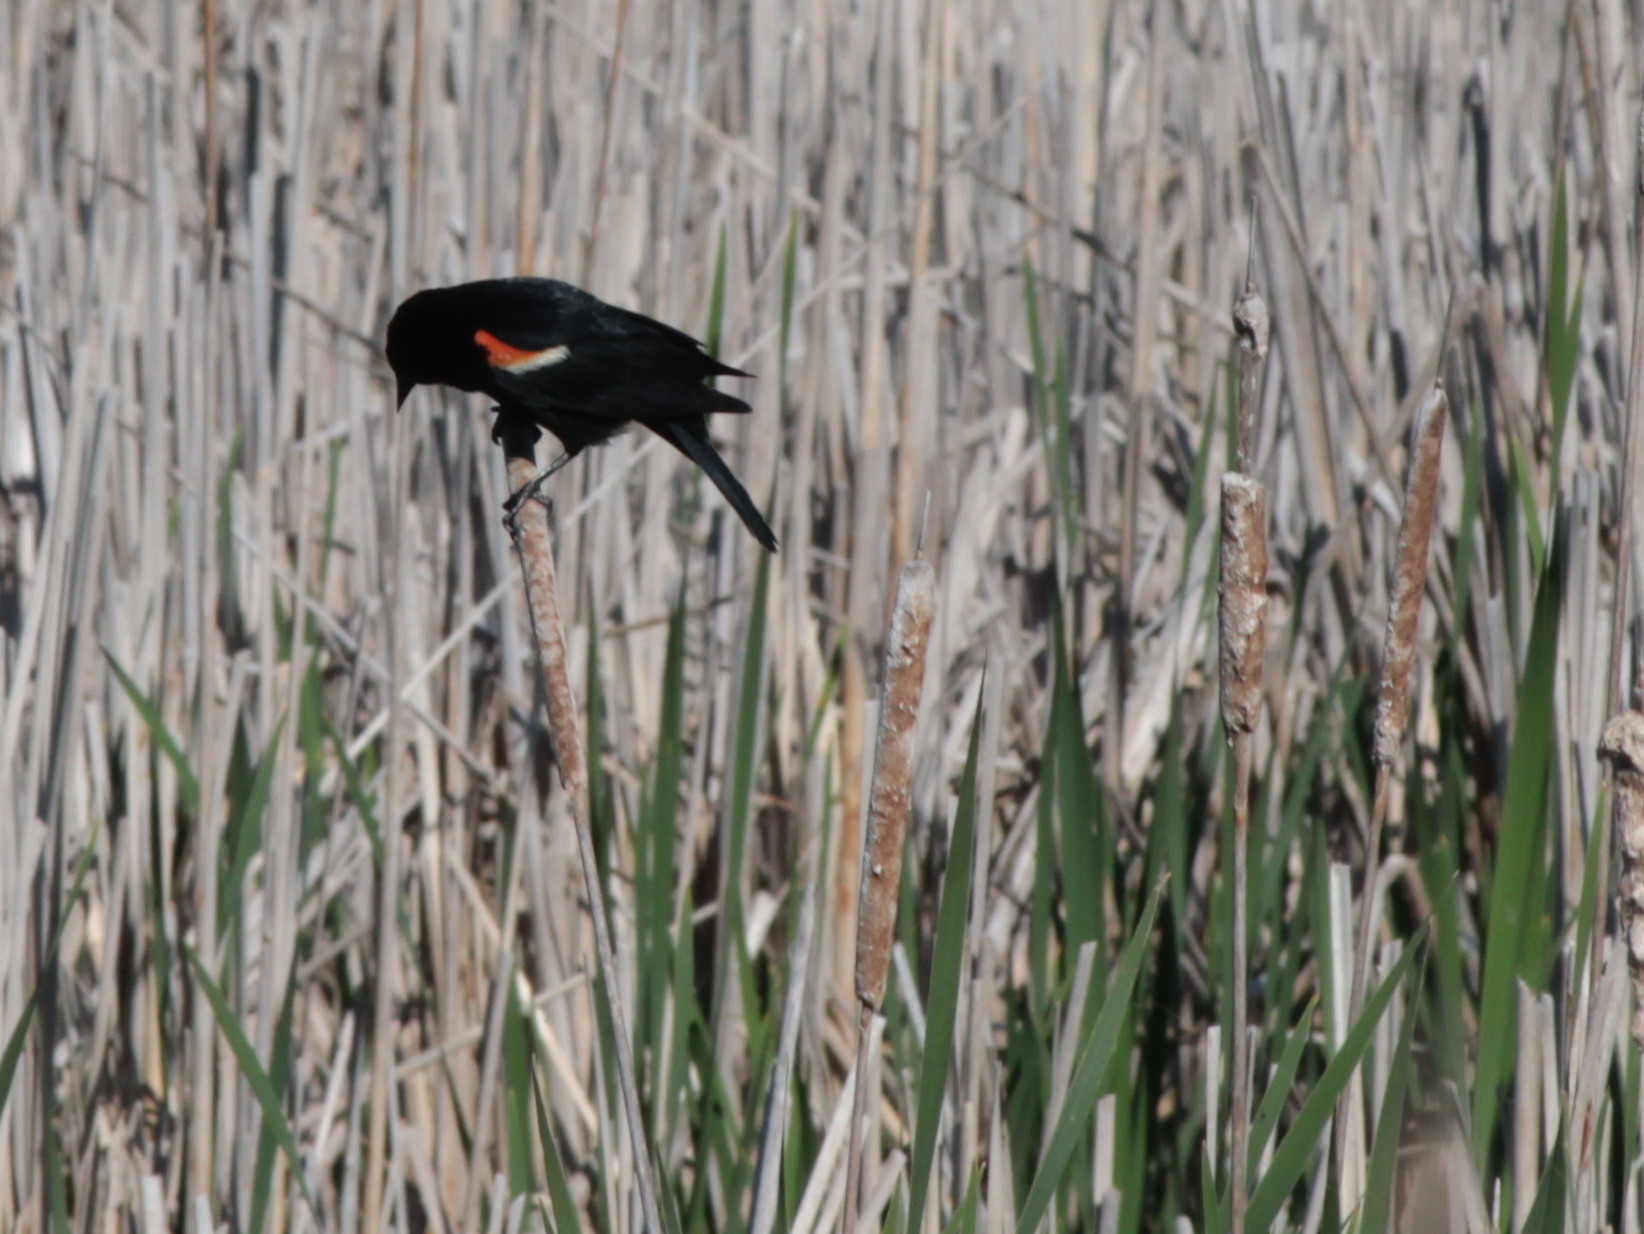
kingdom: Animalia
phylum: Chordata
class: Aves
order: Passeriformes
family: Icteridae
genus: Agelaius
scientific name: Agelaius phoeniceus
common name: Red-winged blackbird
